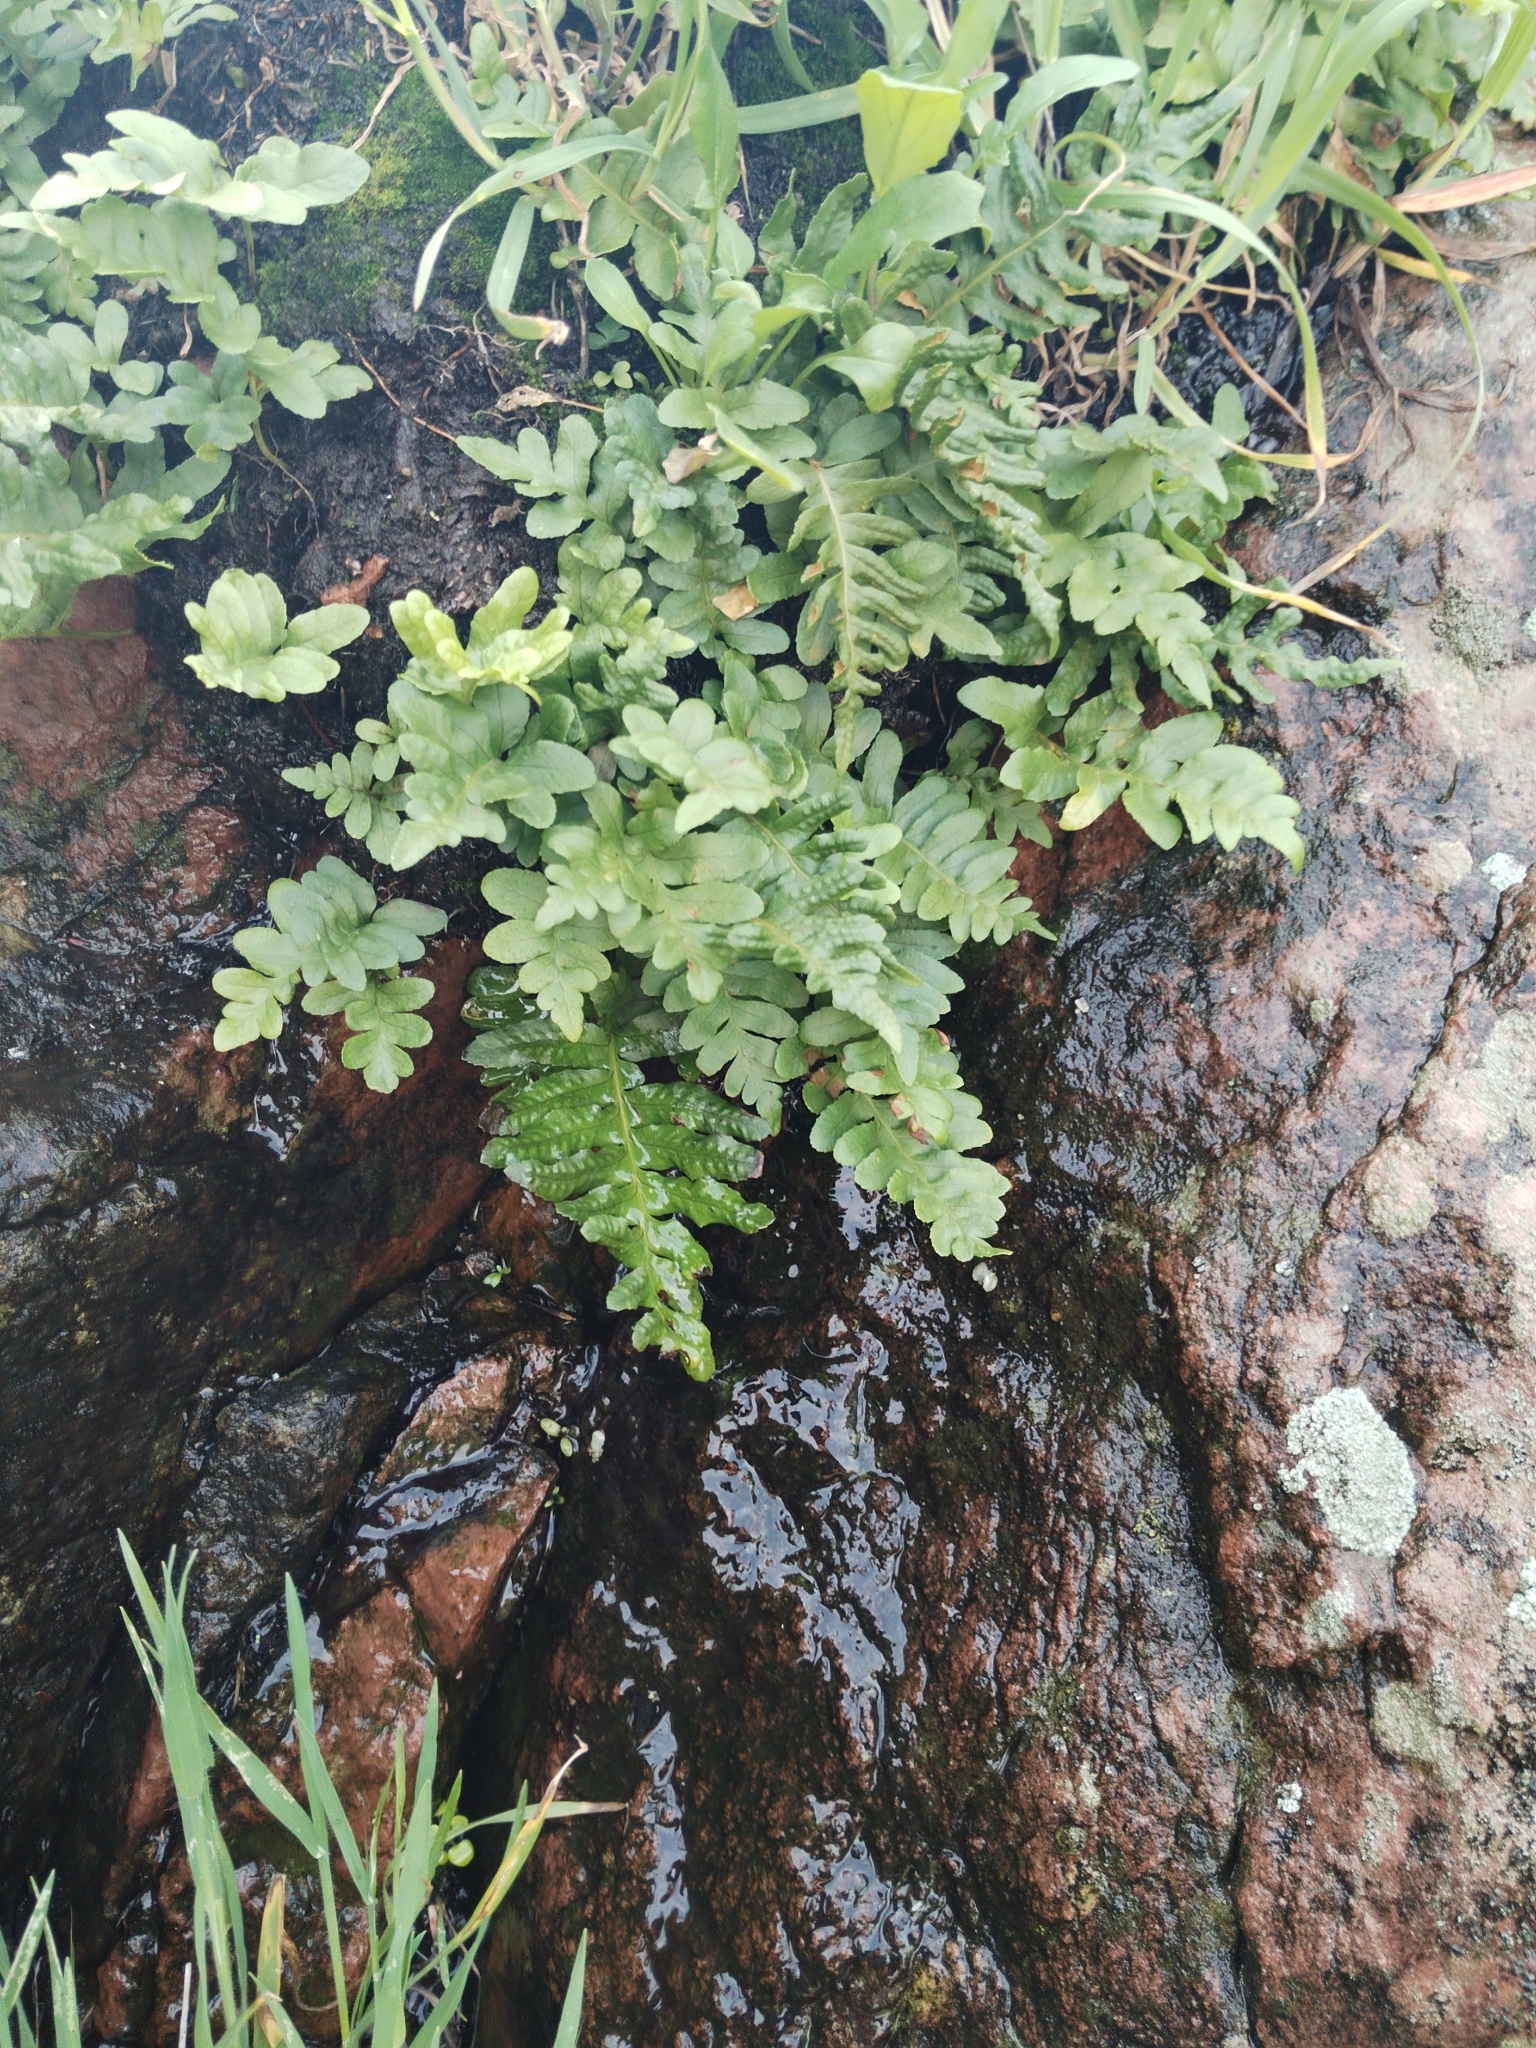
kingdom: Plantae
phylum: Tracheophyta
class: Polypodiopsida
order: Polypodiales
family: Polypodiaceae
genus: Polypodium
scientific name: Polypodium californicum
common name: California polypody
